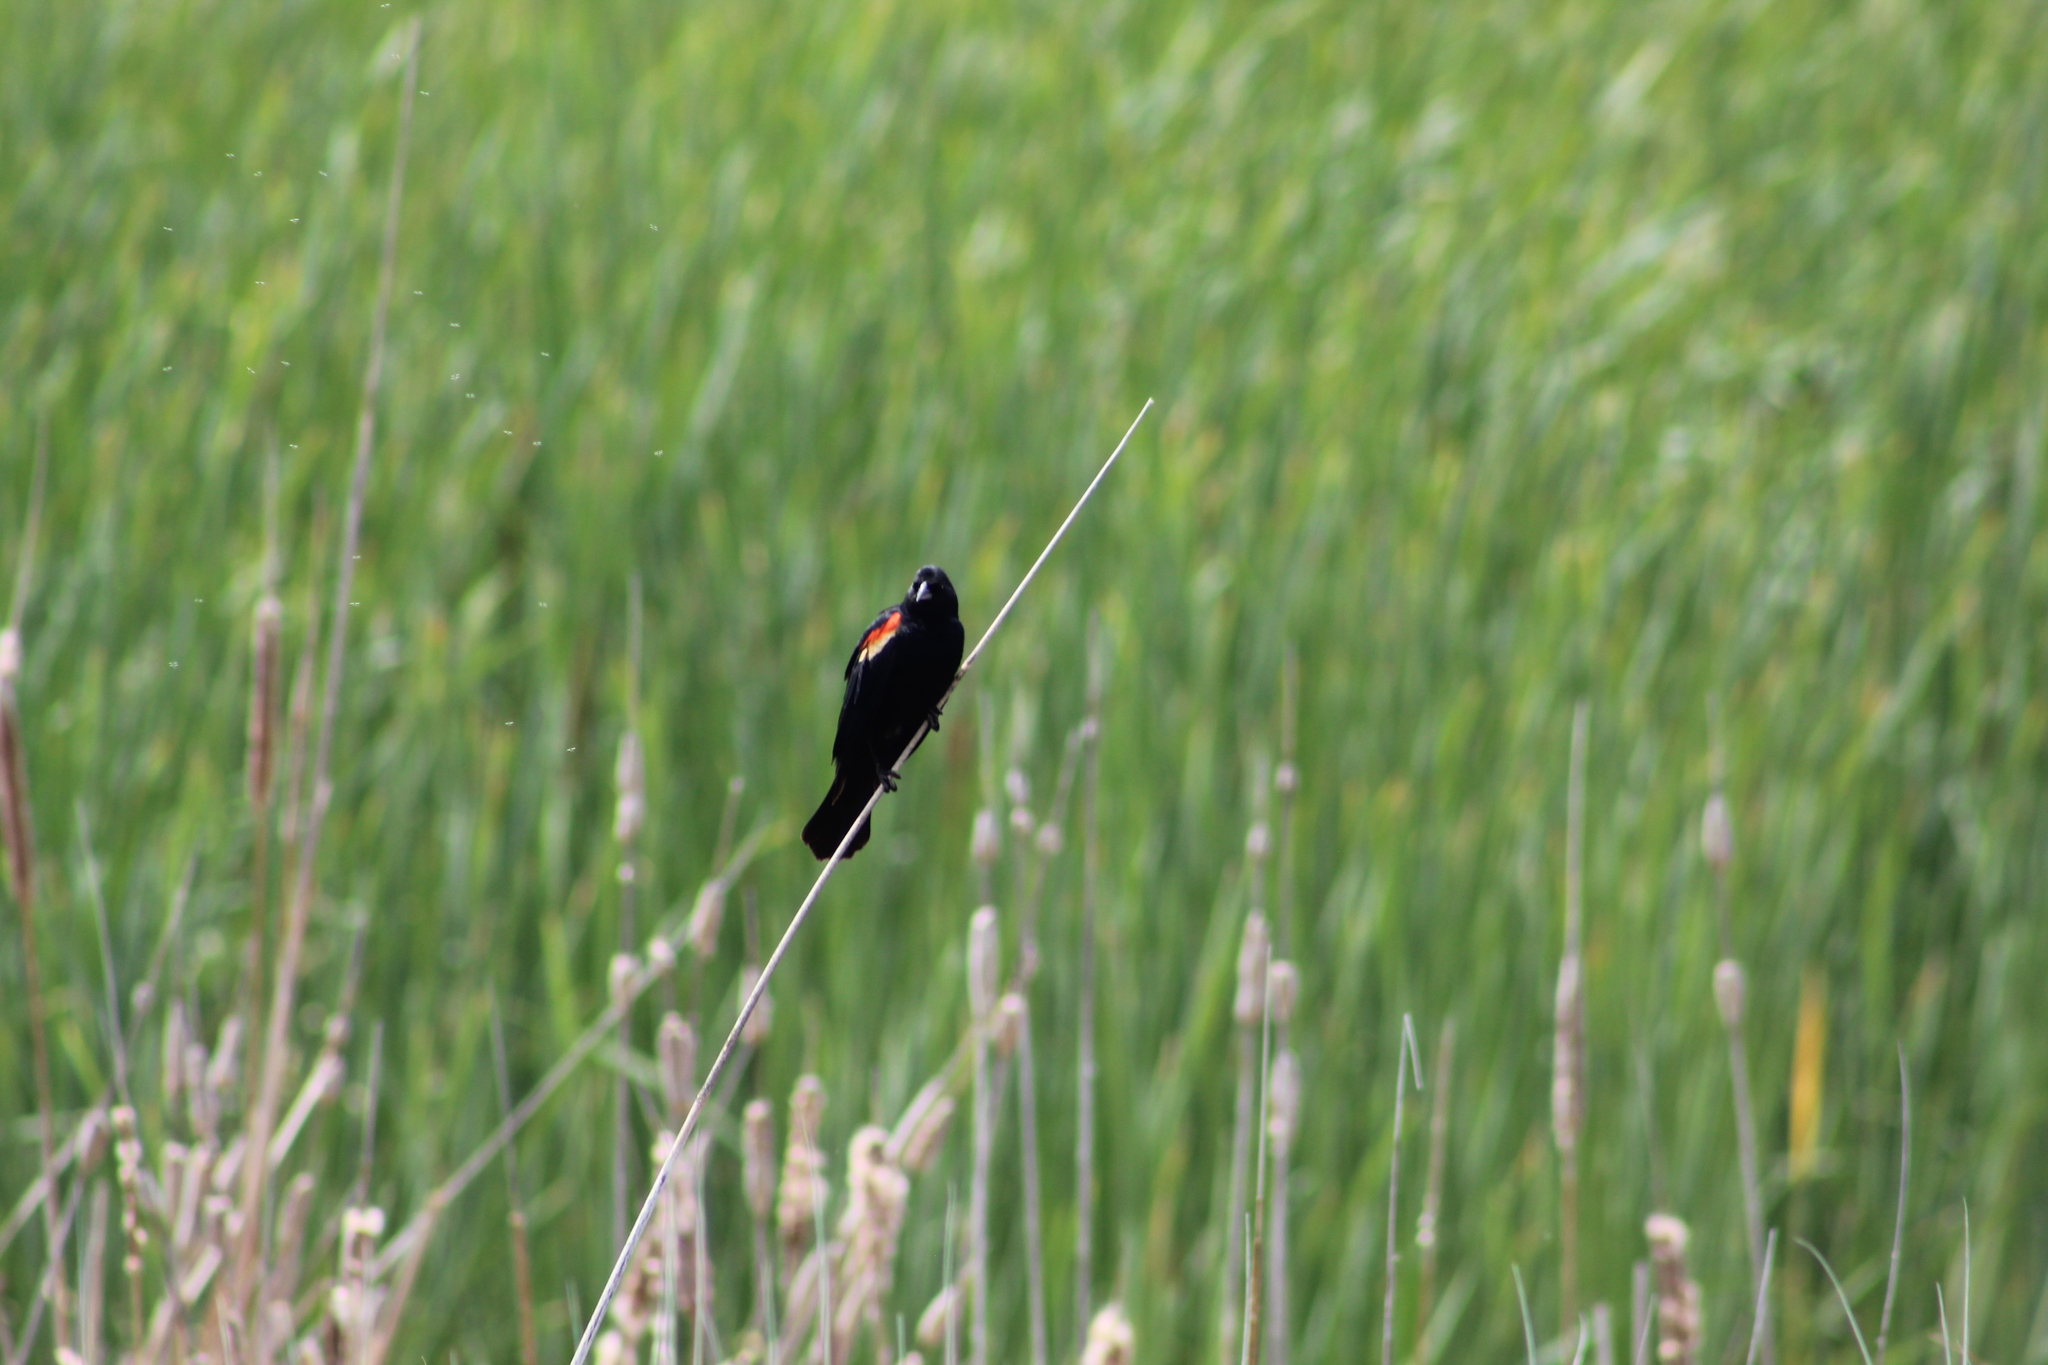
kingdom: Animalia
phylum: Chordata
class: Aves
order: Passeriformes
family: Icteridae
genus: Agelaius
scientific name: Agelaius phoeniceus
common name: Red-winged blackbird
